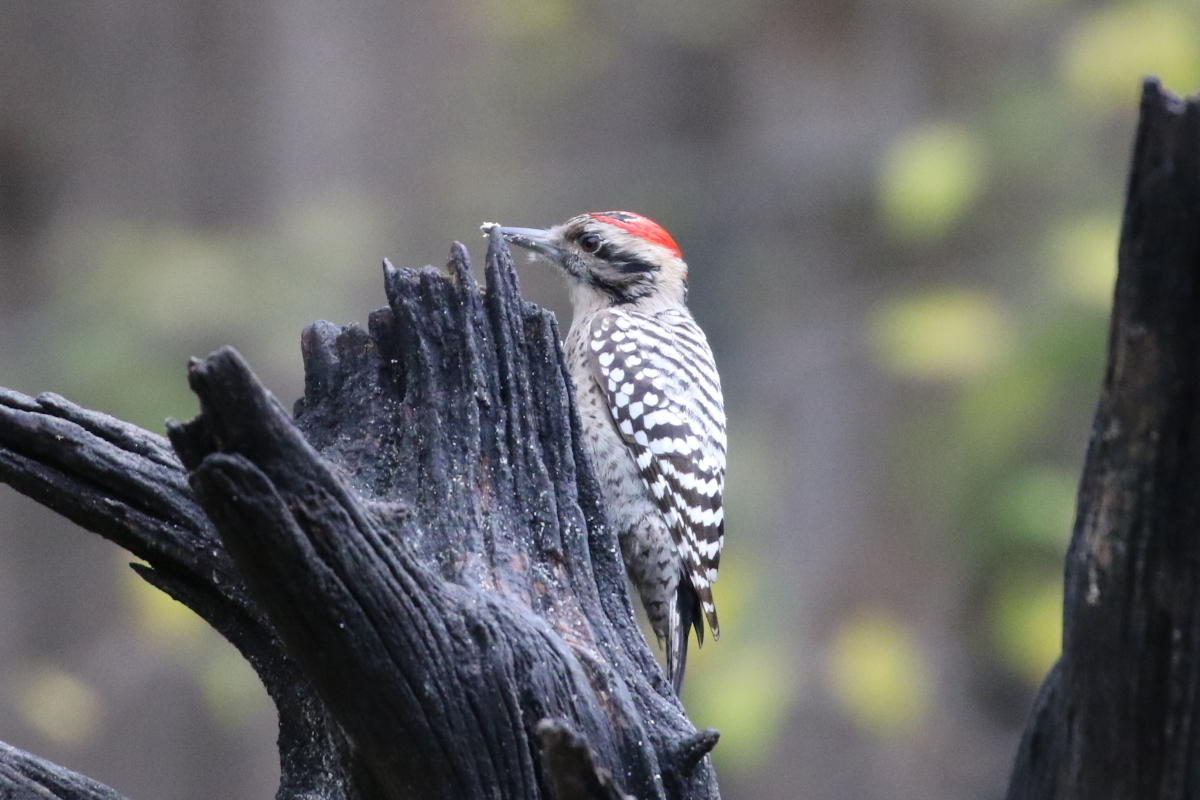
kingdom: Animalia
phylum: Chordata
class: Aves
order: Piciformes
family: Picidae
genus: Dryobates
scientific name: Dryobates scalaris
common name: Ladder-backed woodpecker
